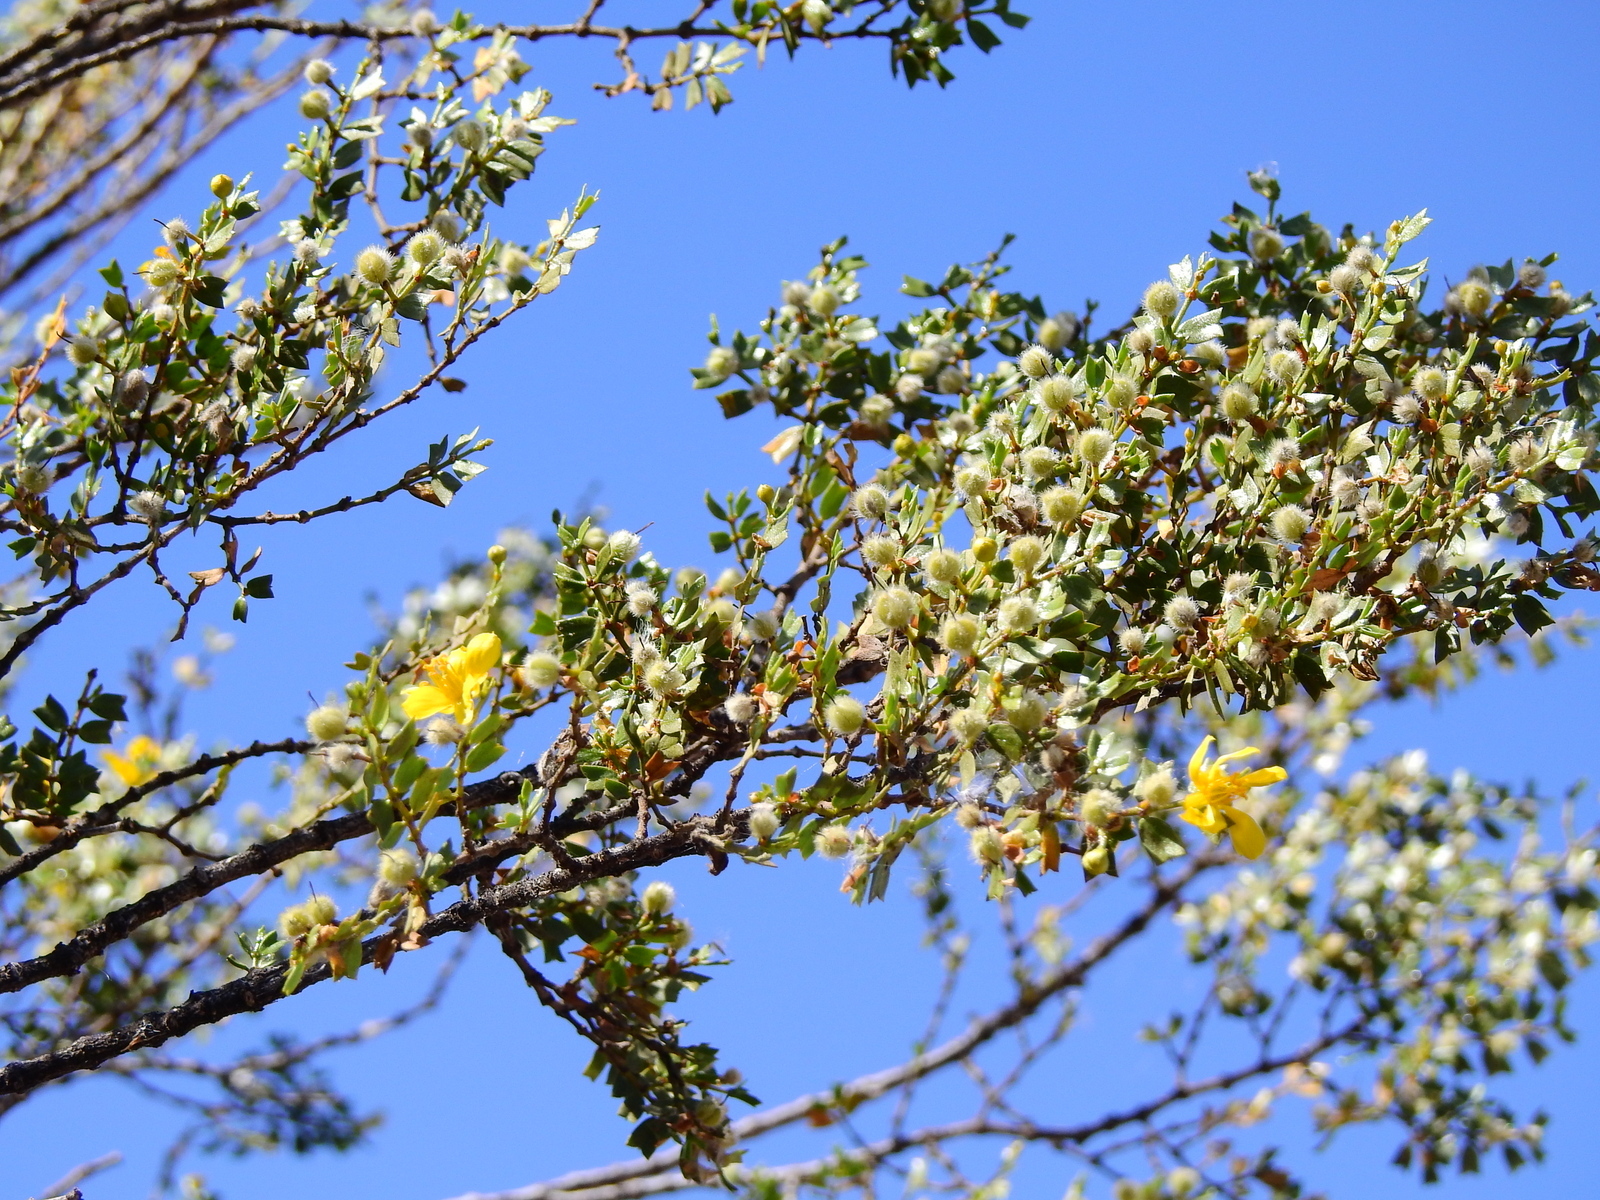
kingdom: Plantae
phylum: Tracheophyta
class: Magnoliopsida
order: Zygophyllales
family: Zygophyllaceae
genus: Larrea
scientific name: Larrea cuneifolia
